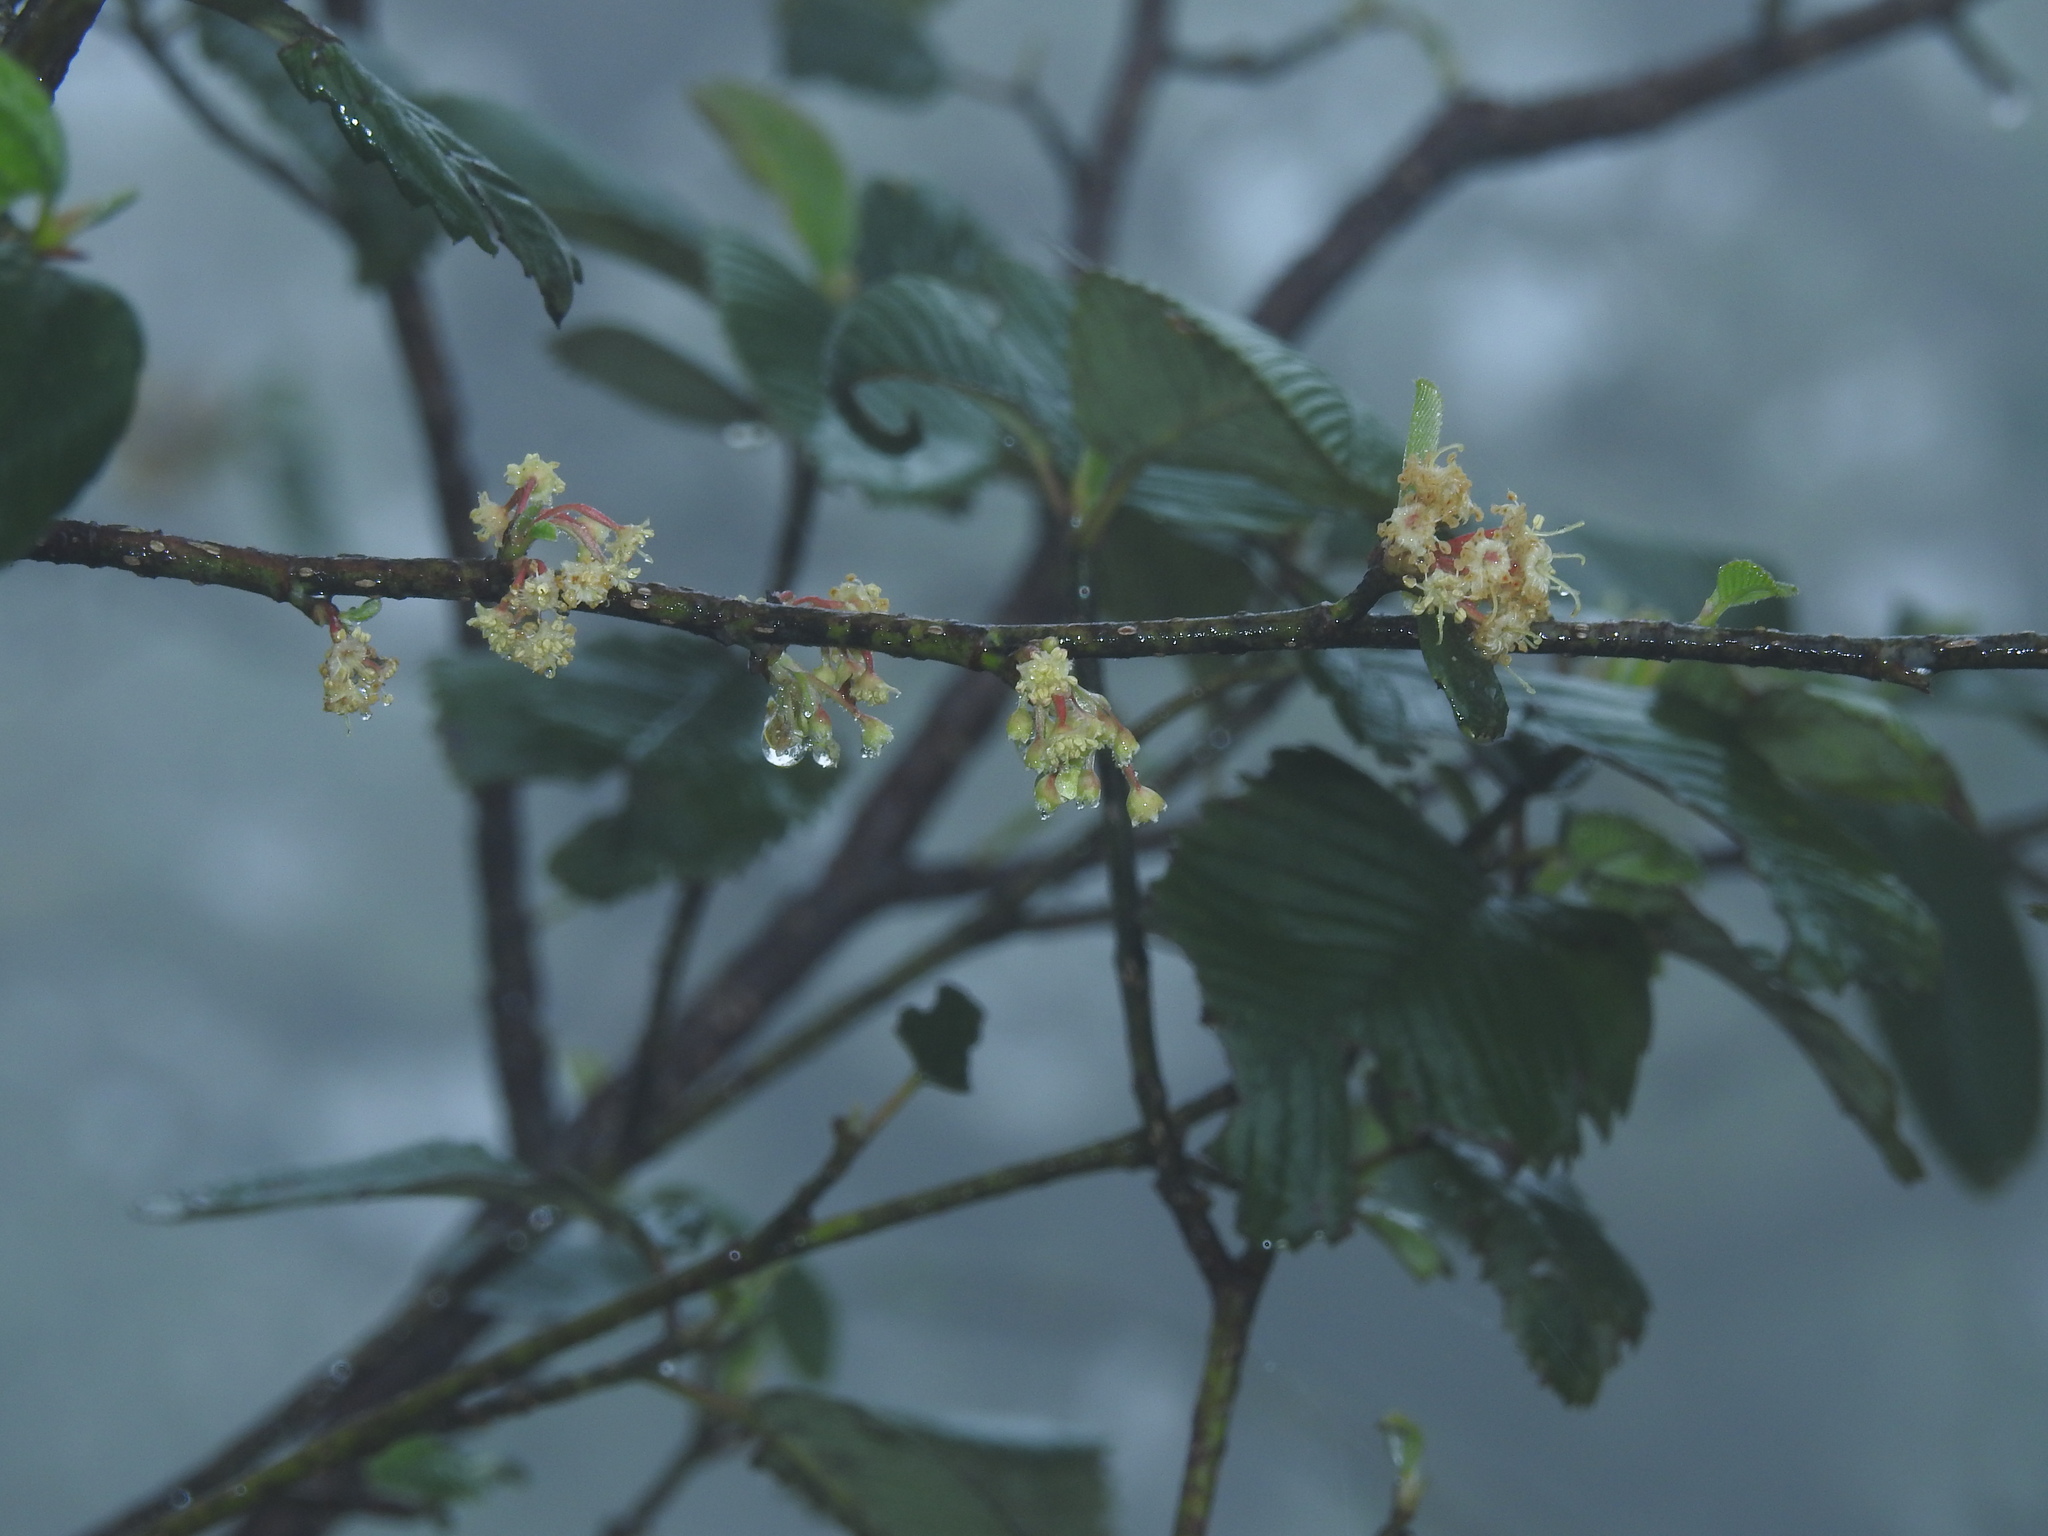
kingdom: Plantae
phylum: Tracheophyta
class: Magnoliopsida
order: Rosales
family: Rosaceae
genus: Cercocarpus
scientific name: Cercocarpus macrophyllus
